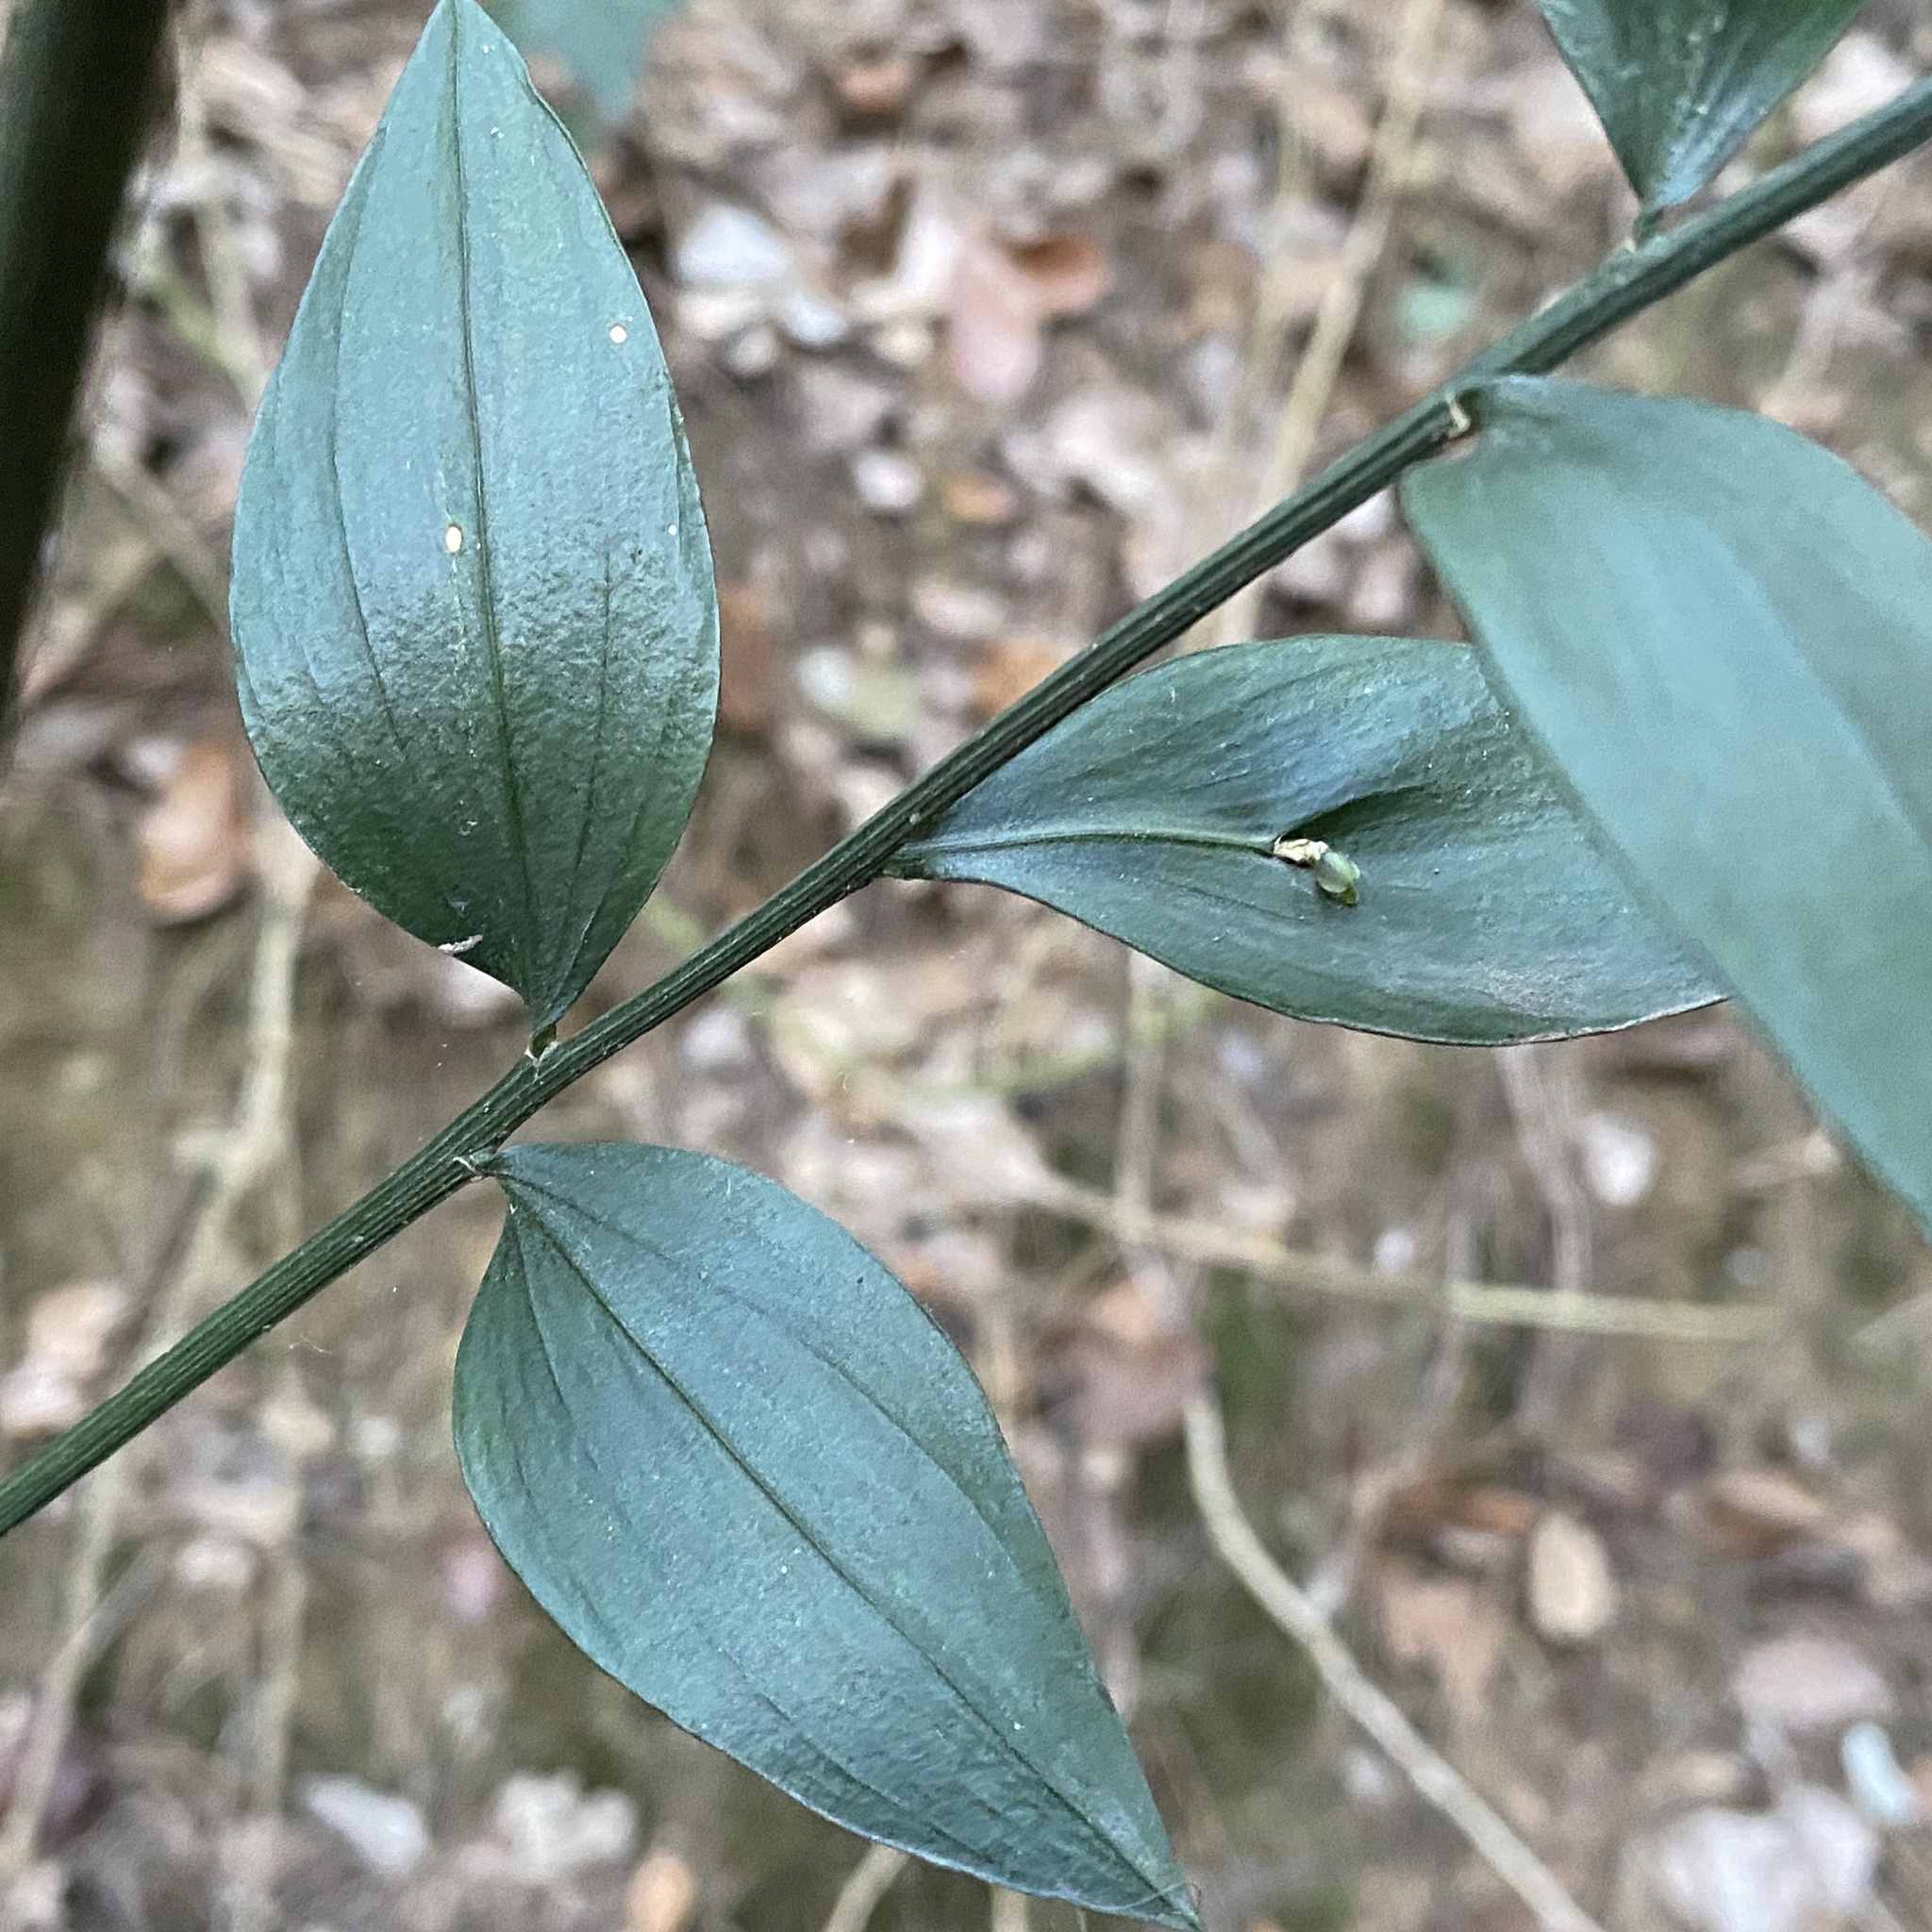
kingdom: Plantae
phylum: Tracheophyta
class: Liliopsida
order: Asparagales
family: Asparagaceae
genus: Ruscus
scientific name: Ruscus aculeatus
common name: Butcher's-broom
